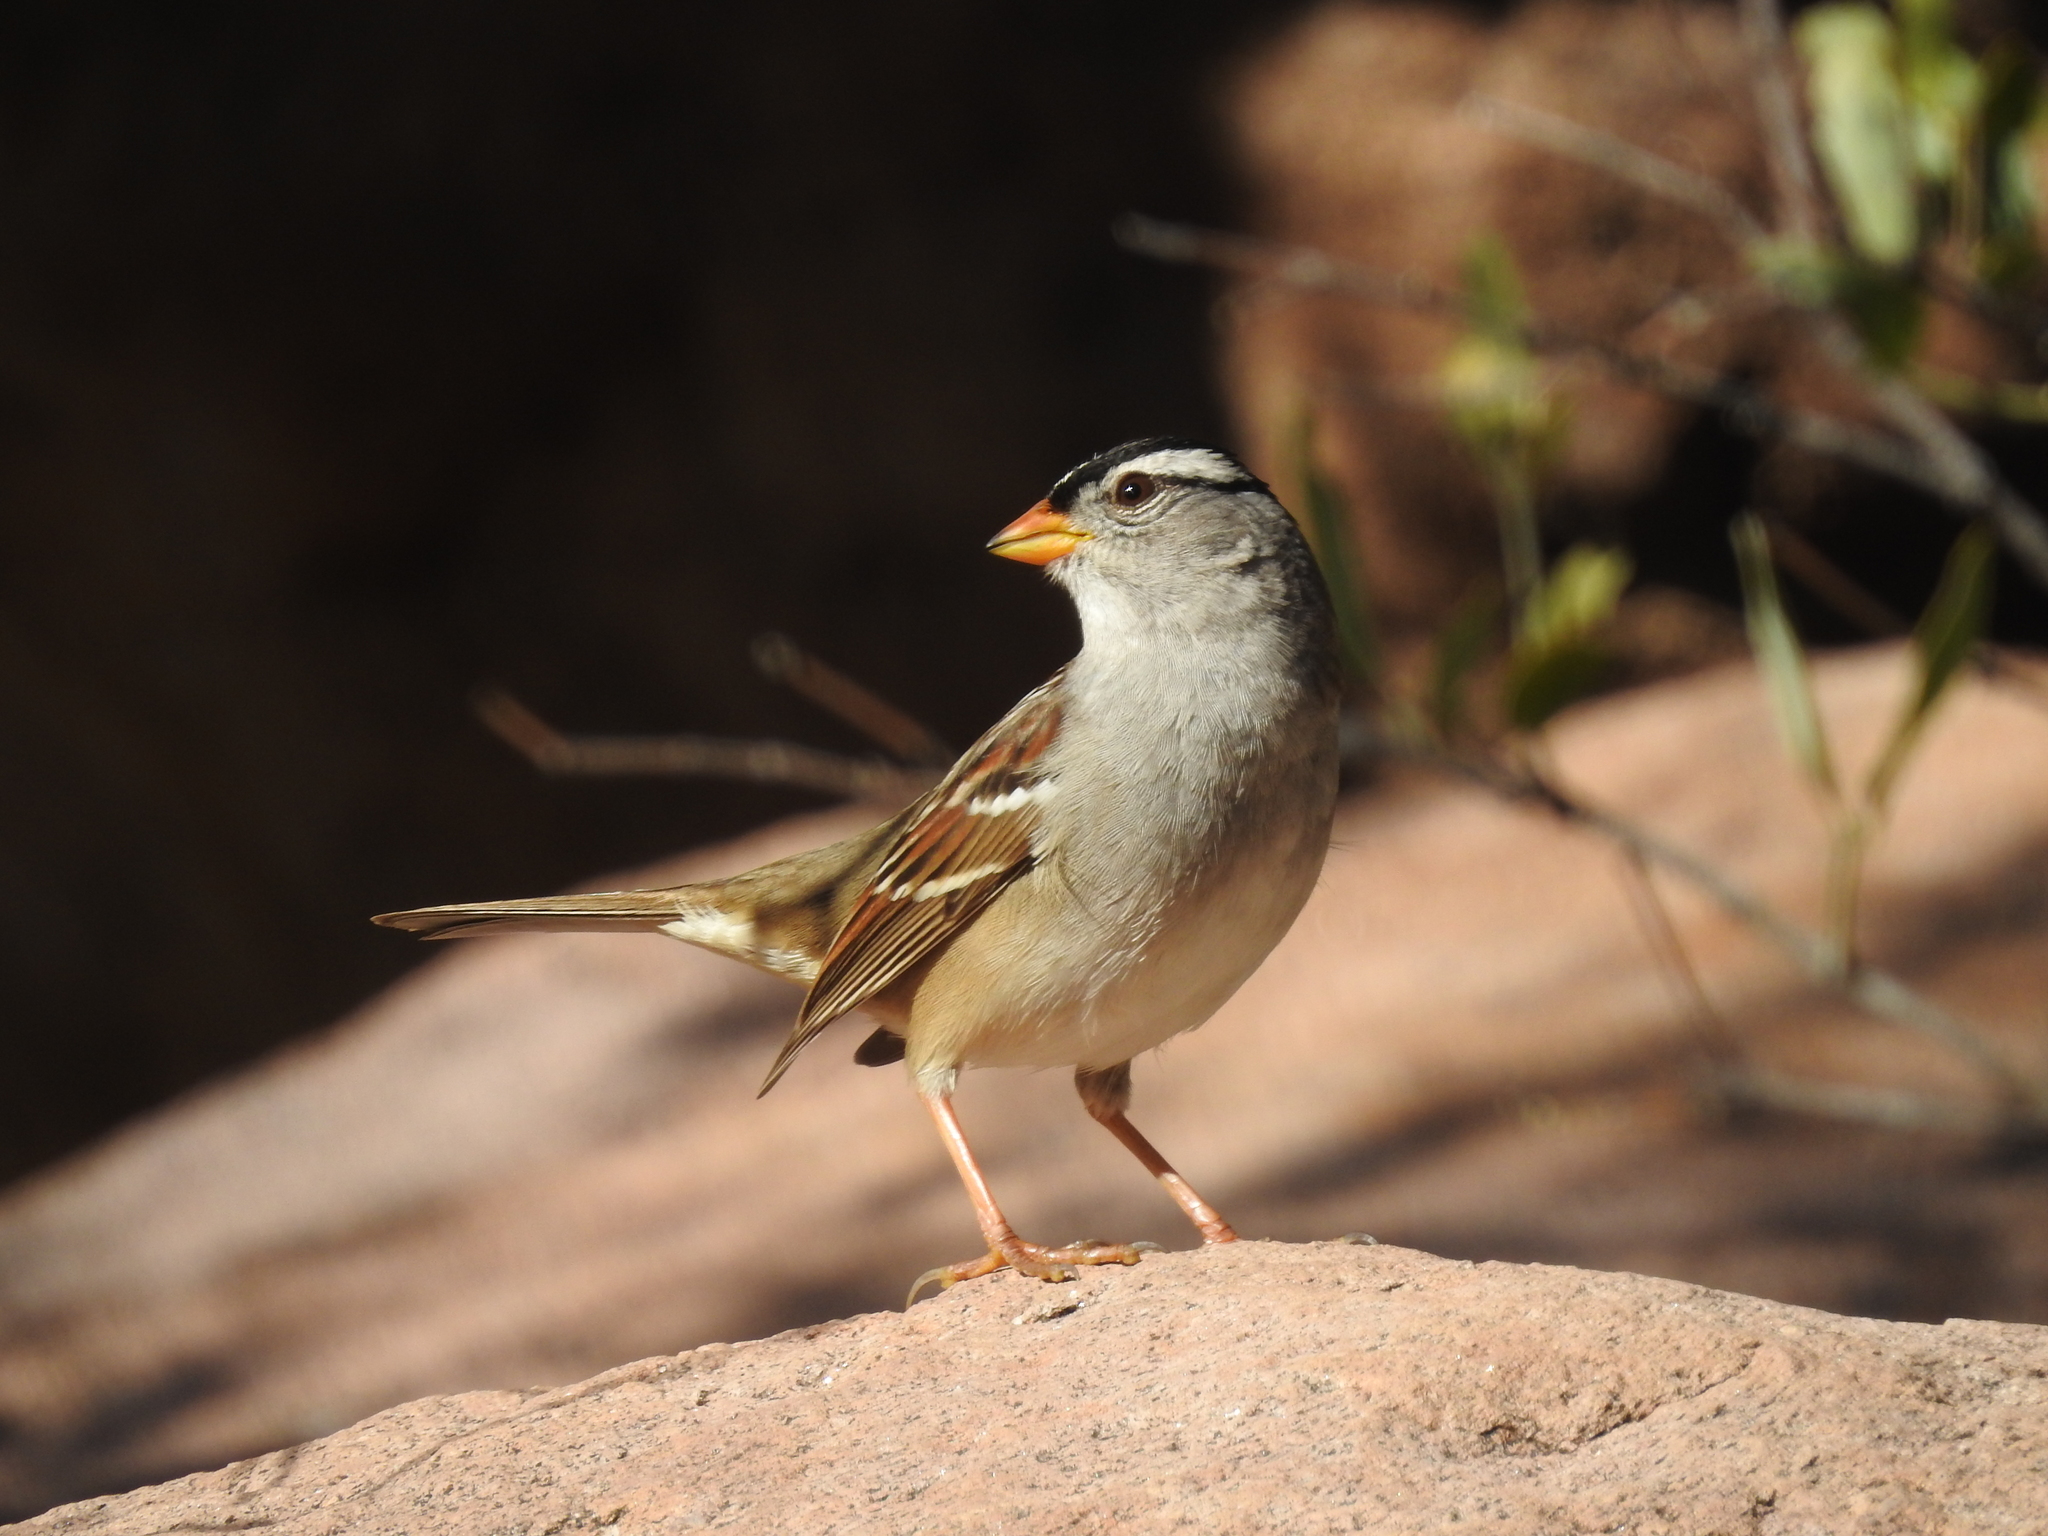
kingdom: Animalia
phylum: Chordata
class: Aves
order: Passeriformes
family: Passerellidae
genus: Zonotrichia
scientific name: Zonotrichia leucophrys
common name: White-crowned sparrow
